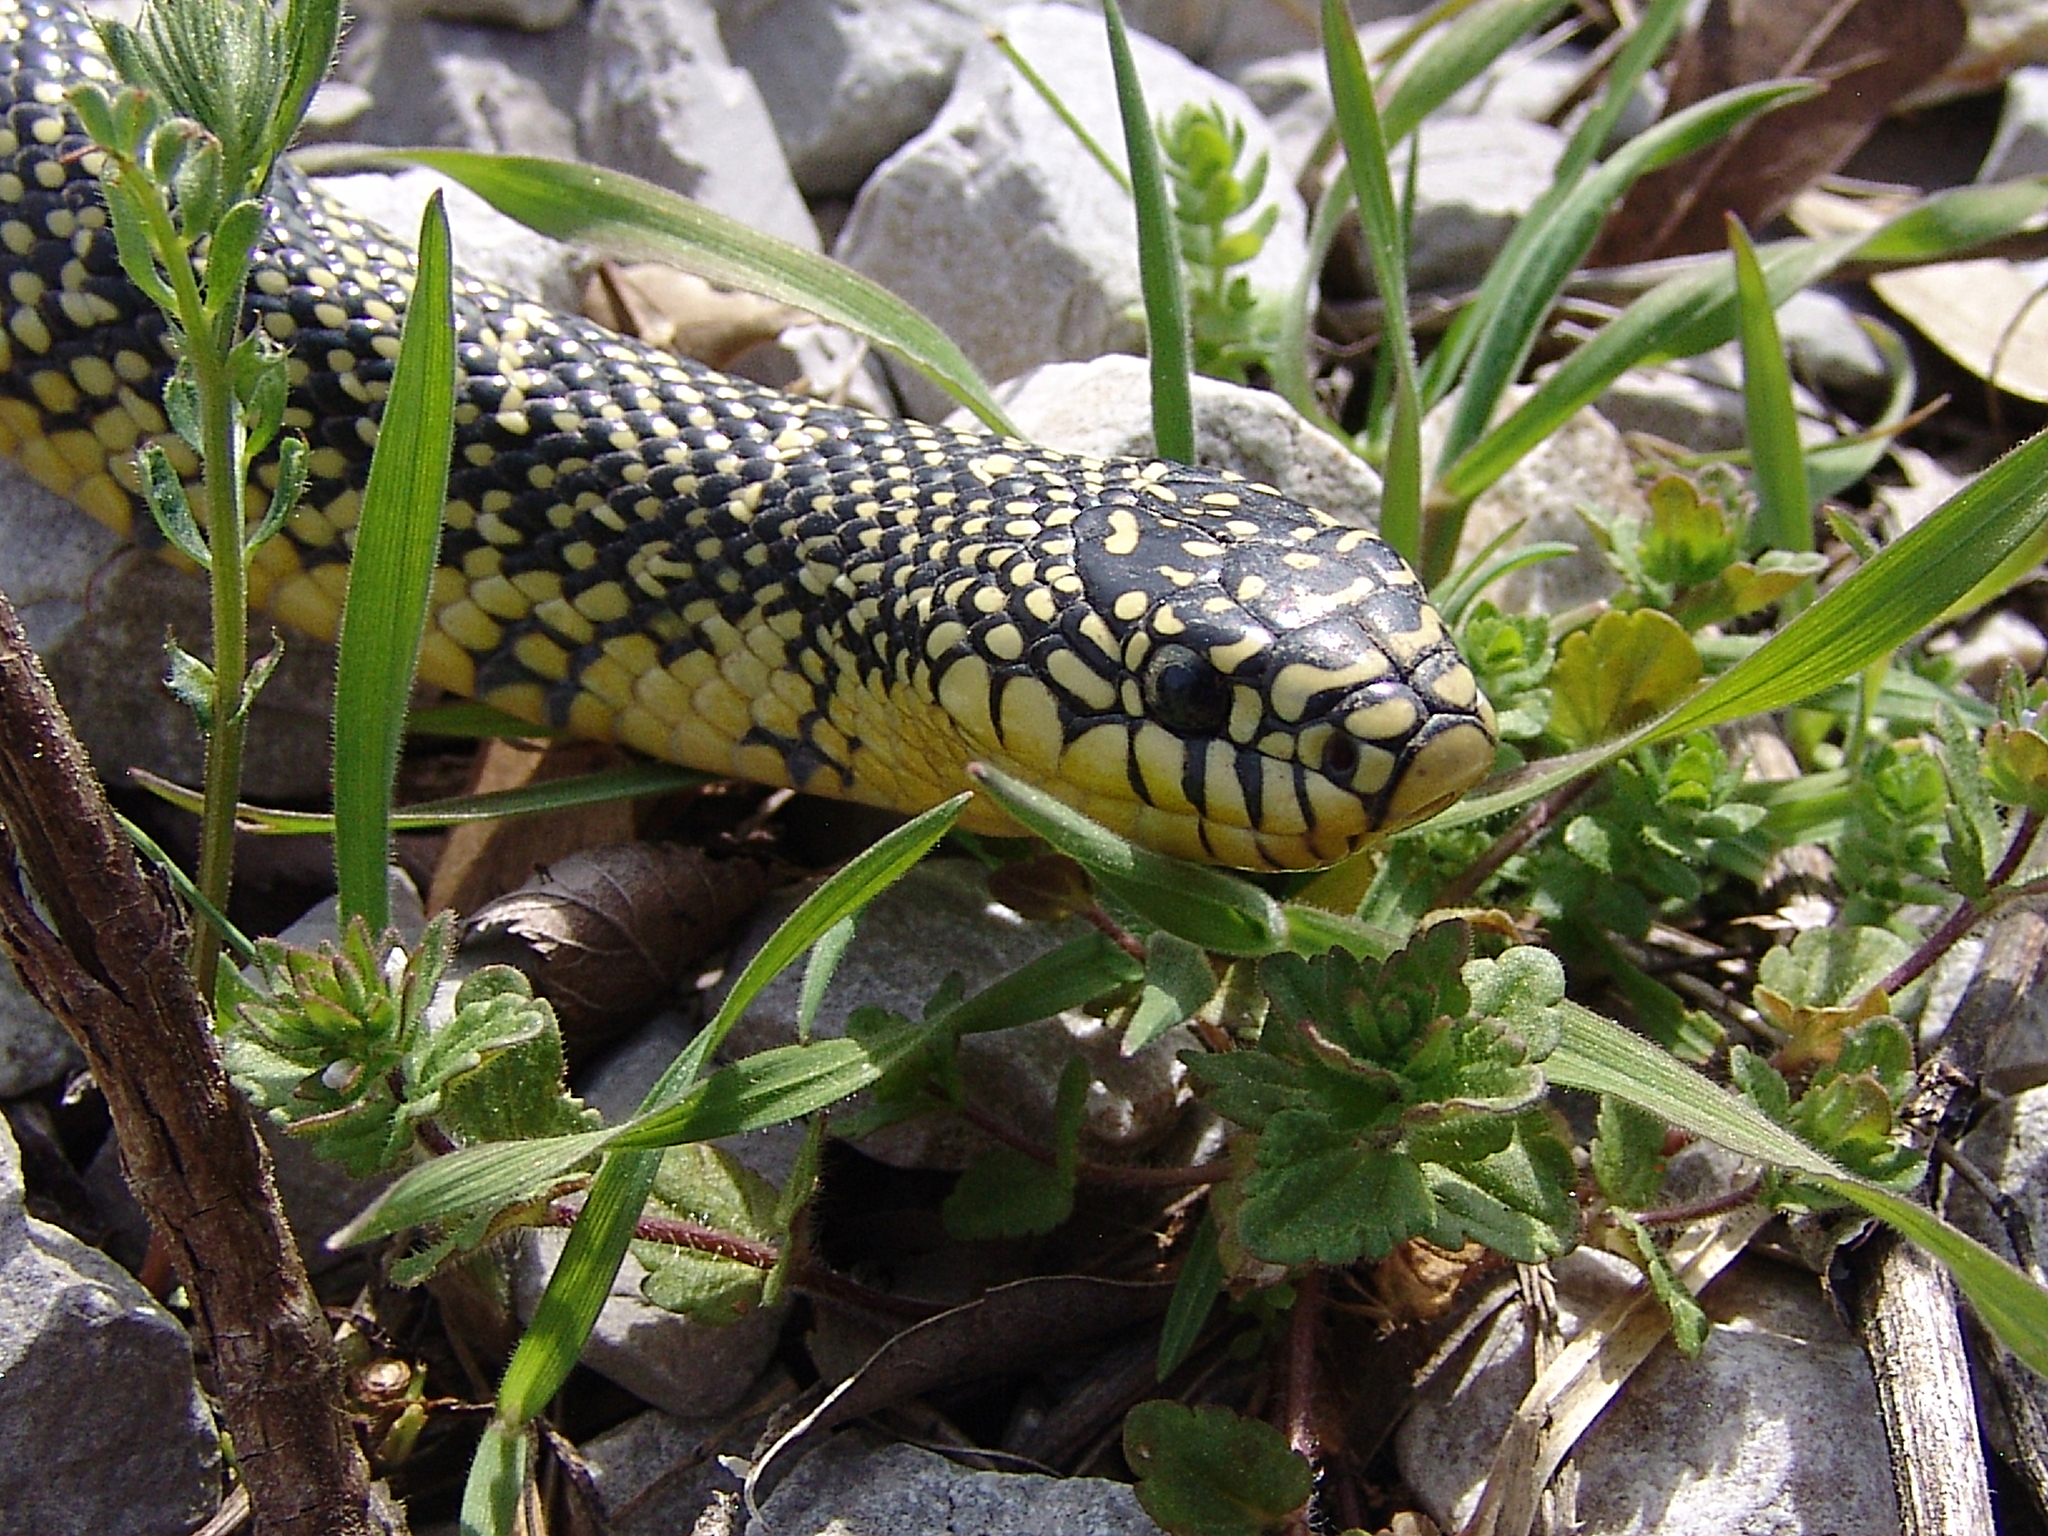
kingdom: Animalia
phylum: Chordata
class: Squamata
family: Colubridae
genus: Lampropeltis
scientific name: Lampropeltis holbrooki
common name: Speckled kingsnake
